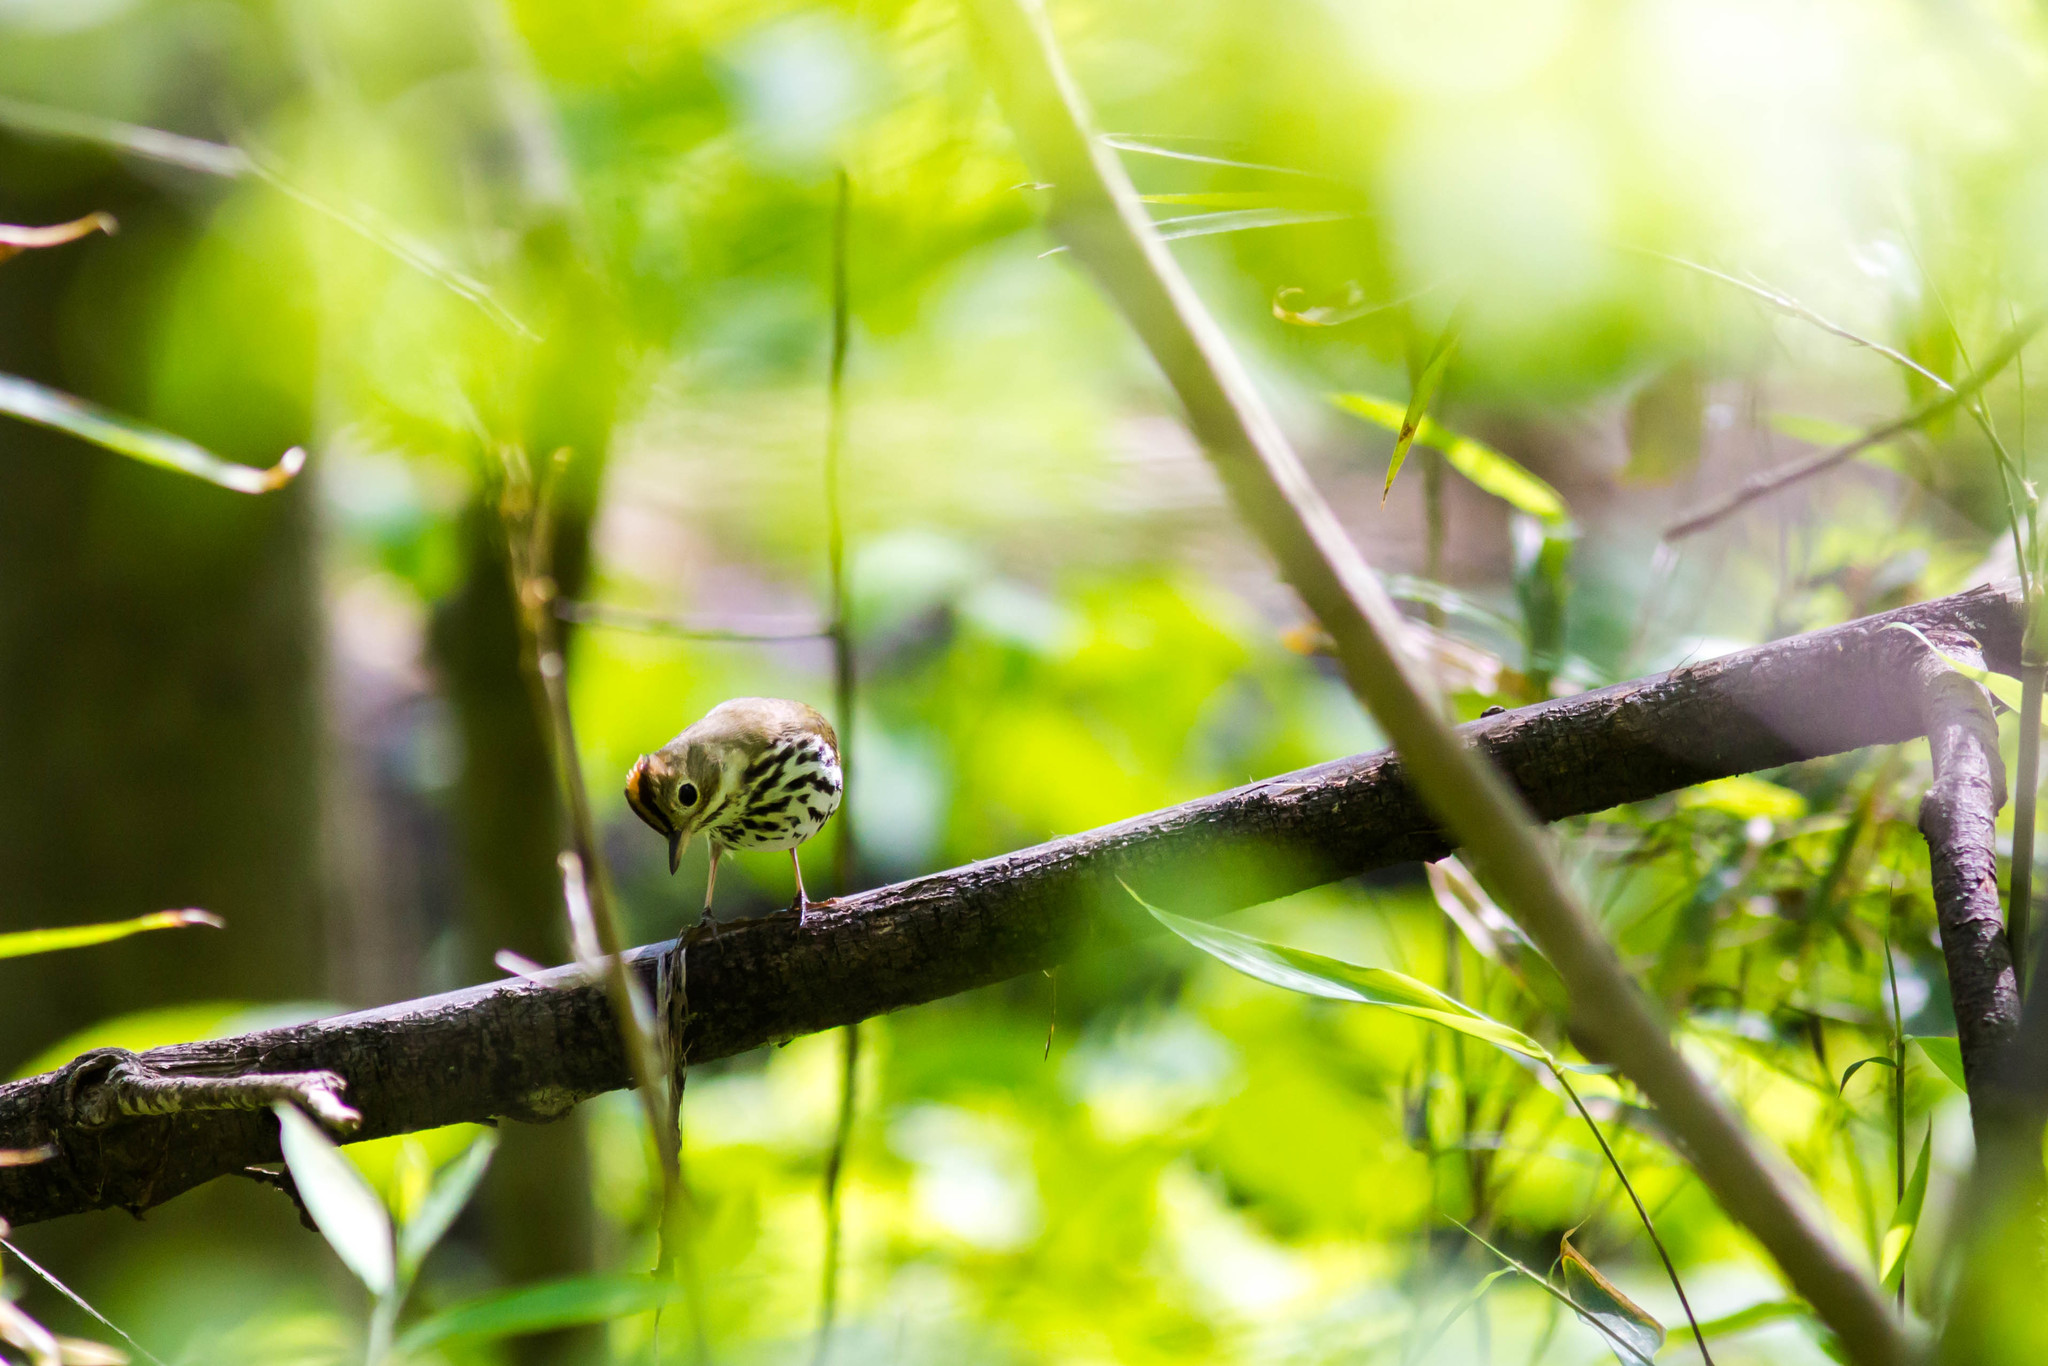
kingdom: Animalia
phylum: Chordata
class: Aves
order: Passeriformes
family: Parulidae
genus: Seiurus
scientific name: Seiurus aurocapilla
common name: Ovenbird
